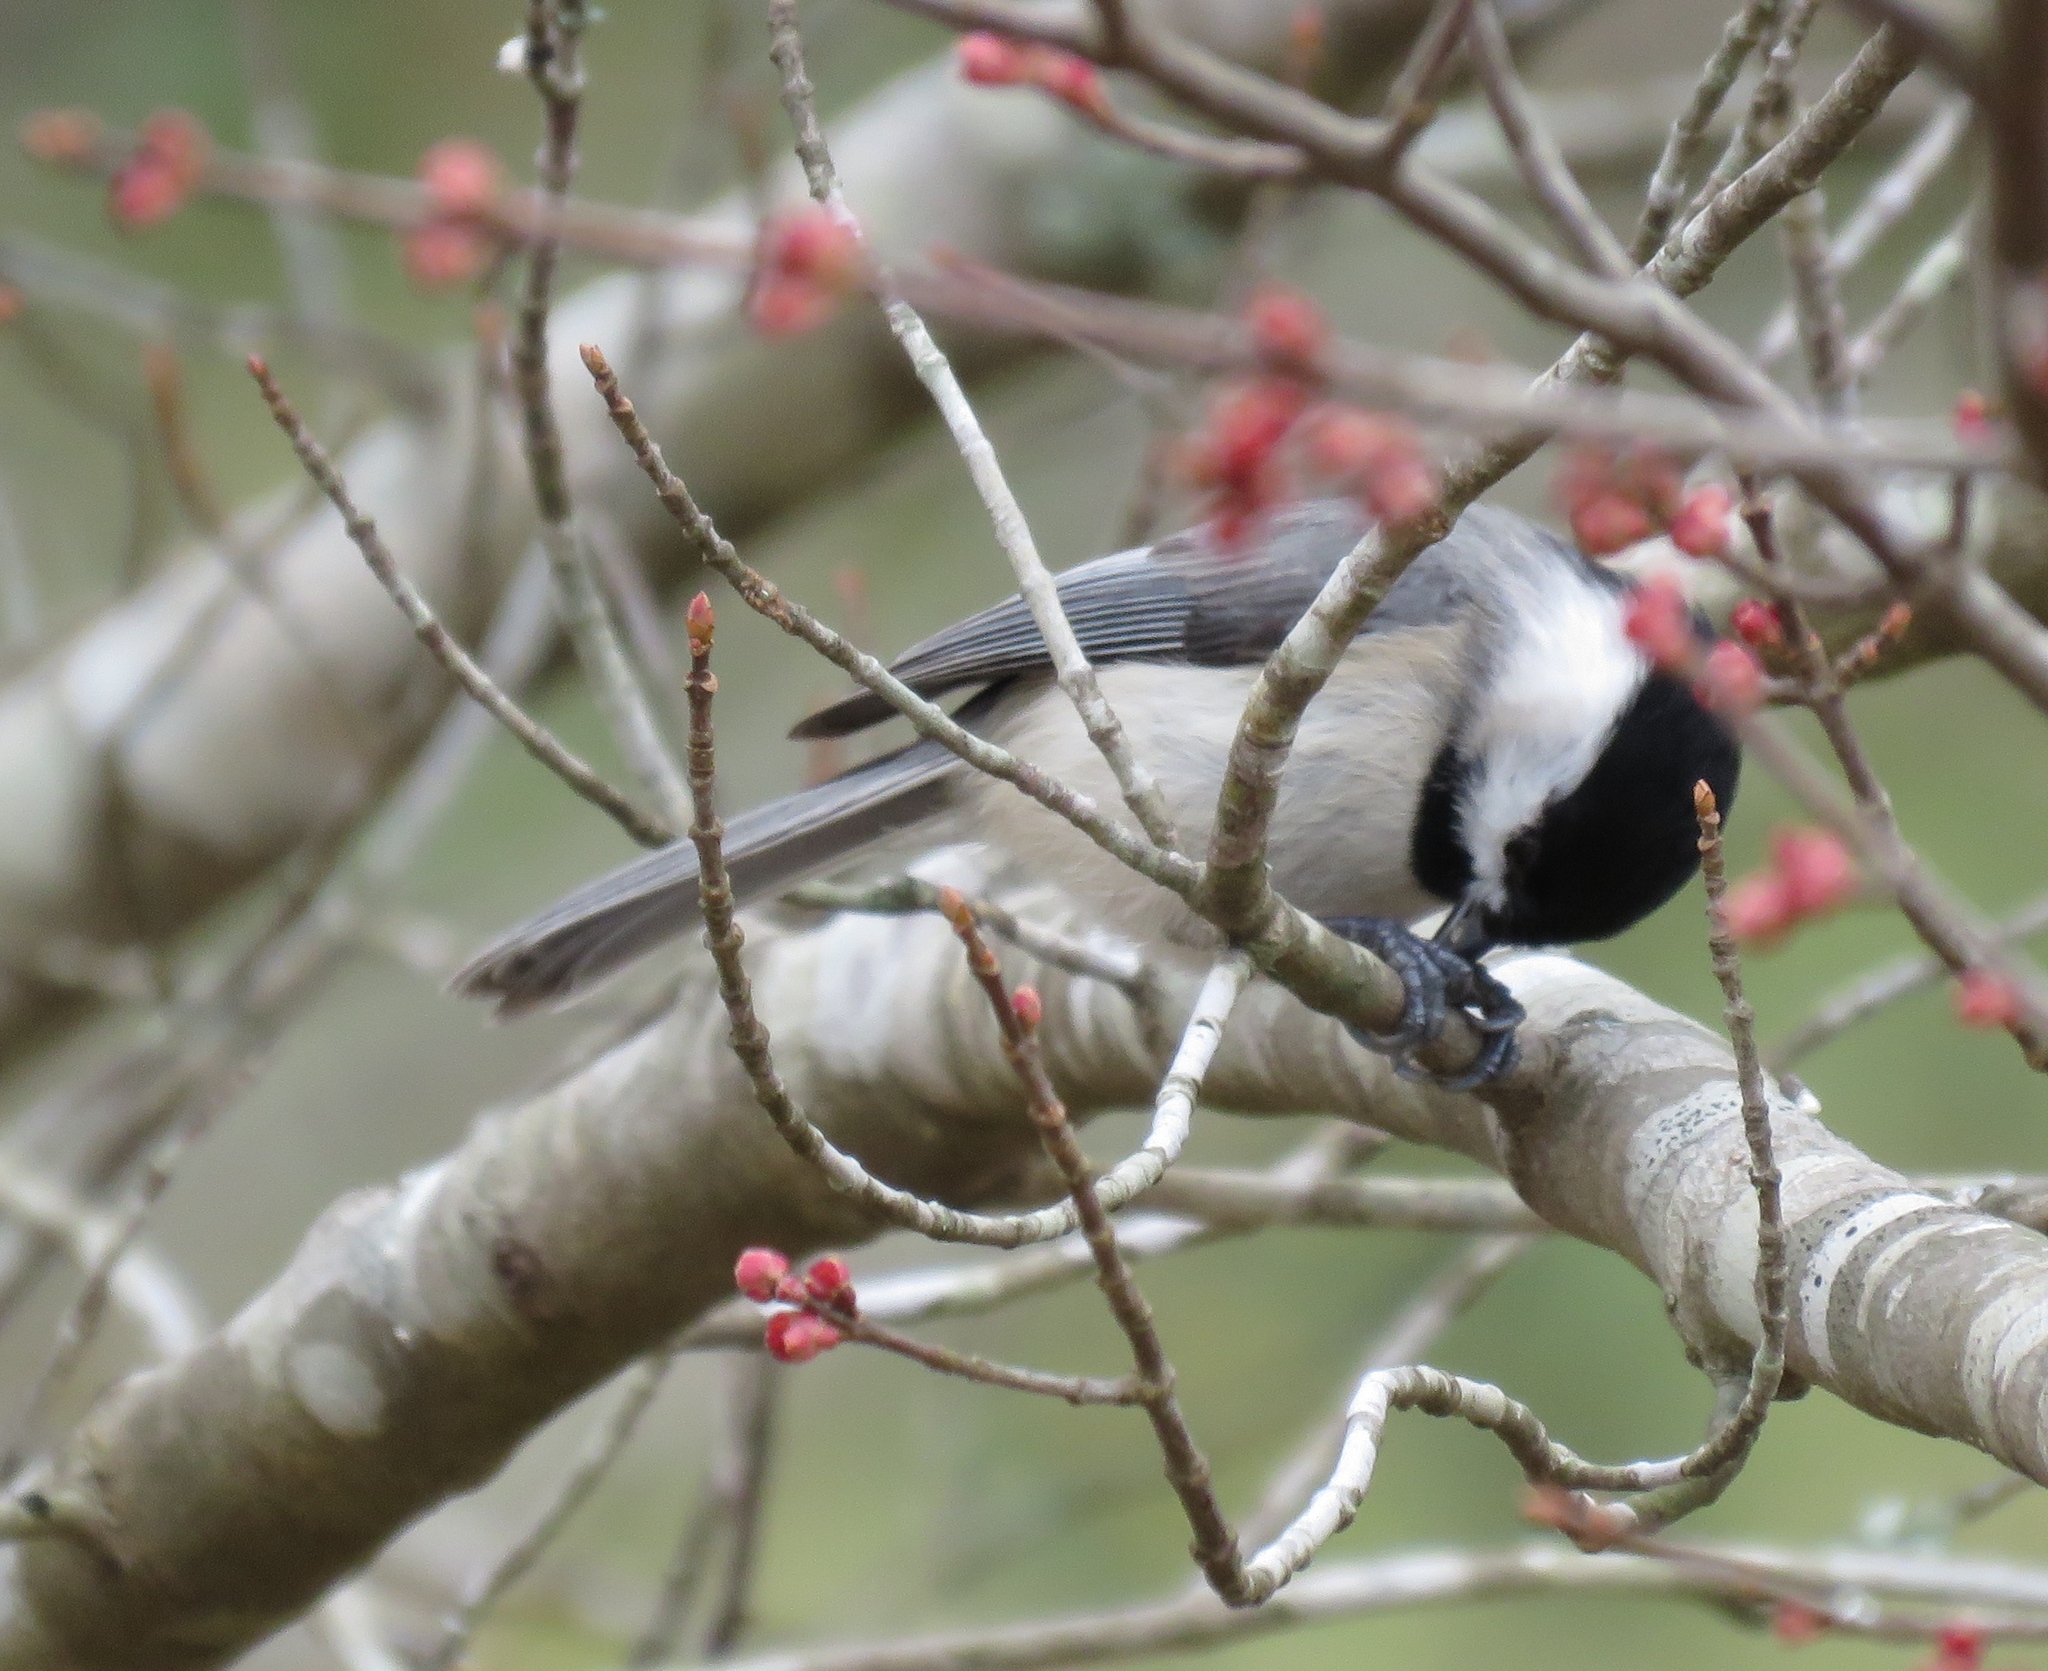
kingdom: Animalia
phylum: Chordata
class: Aves
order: Passeriformes
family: Paridae
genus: Poecile
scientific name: Poecile carolinensis
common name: Carolina chickadee
